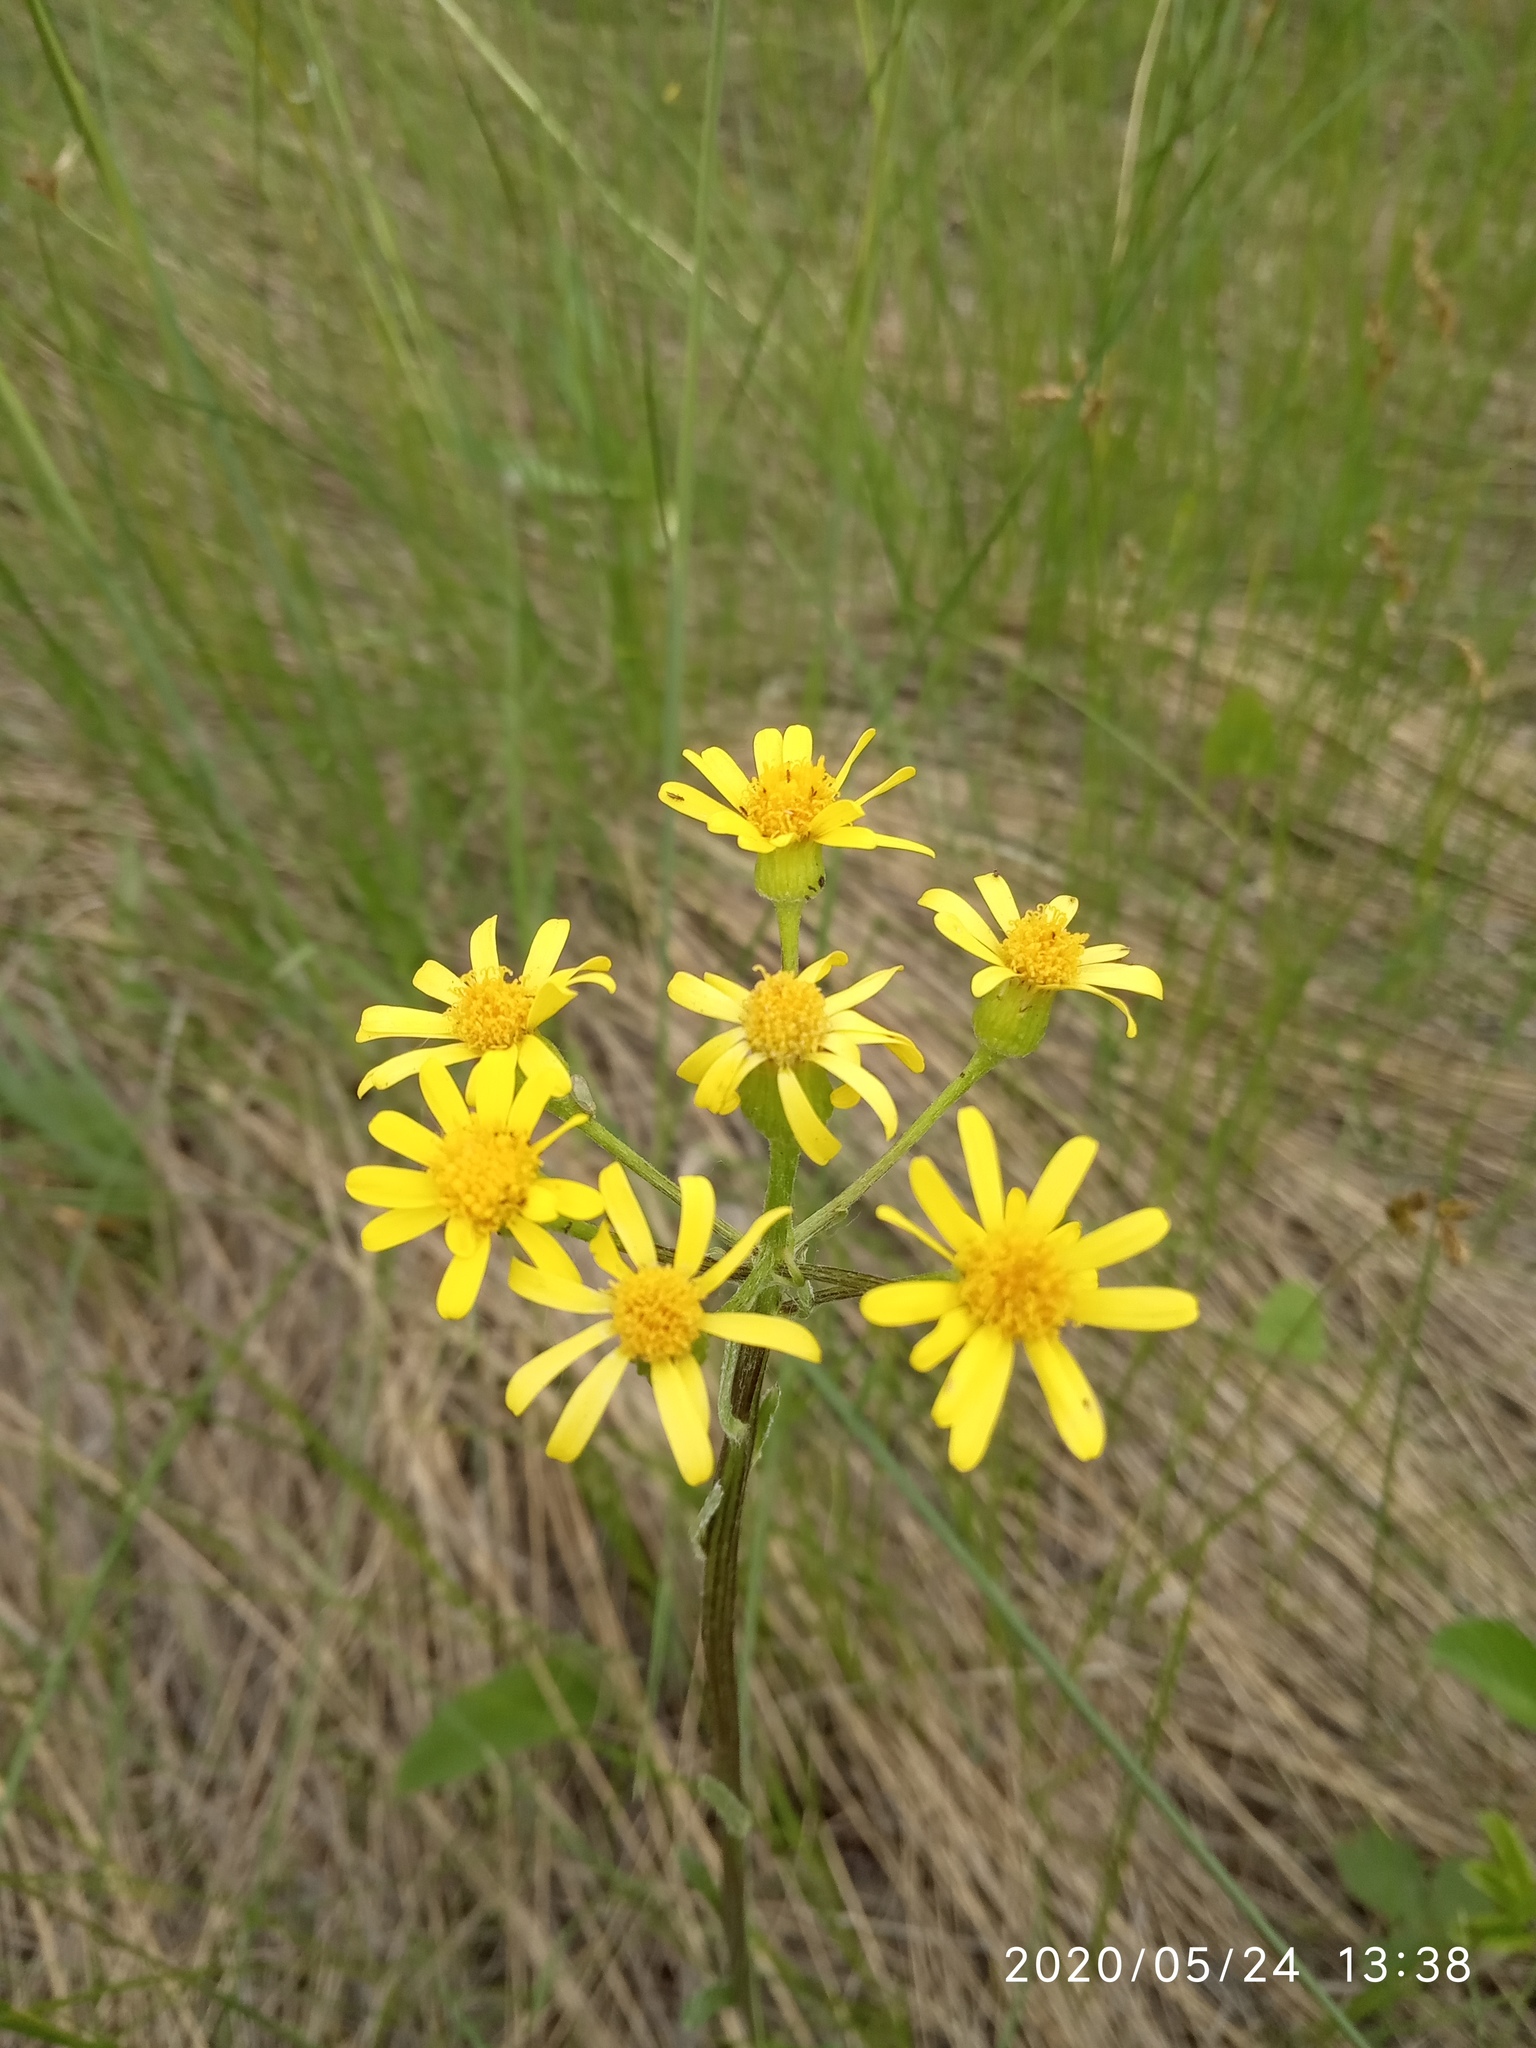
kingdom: Plantae
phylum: Tracheophyta
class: Magnoliopsida
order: Asterales
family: Asteraceae
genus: Tephroseris
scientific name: Tephroseris integrifolia
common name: Field fleawort
